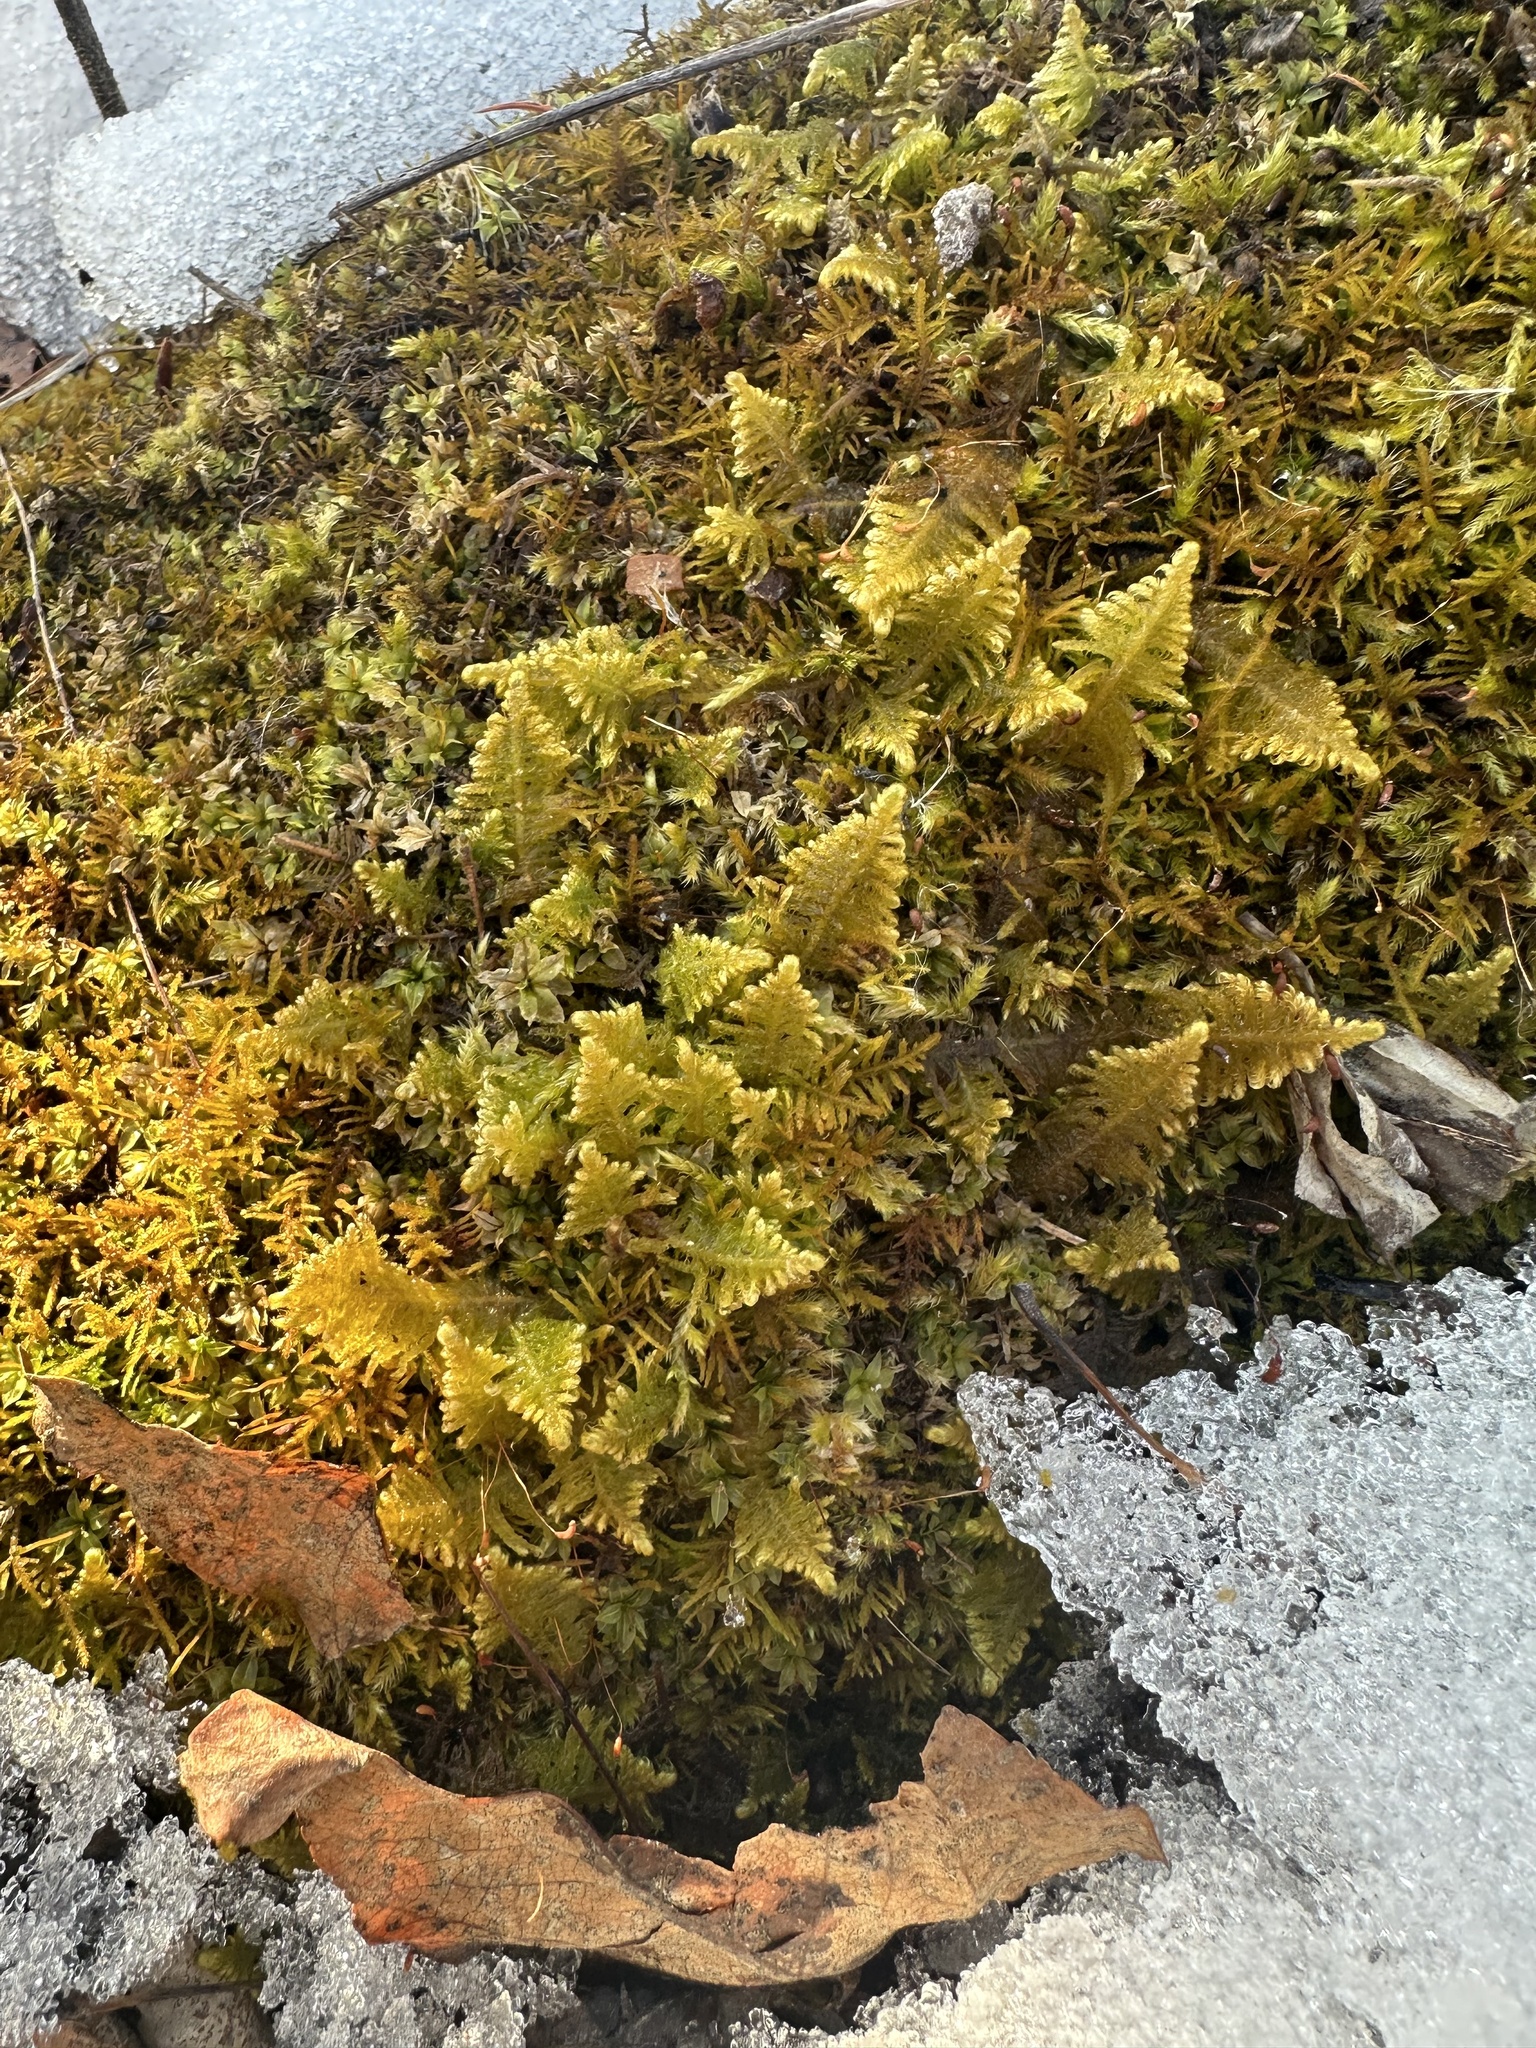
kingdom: Plantae
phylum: Bryophyta
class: Bryopsida
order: Hypnales
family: Pylaisiaceae
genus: Ptilium
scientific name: Ptilium crista-castrensis
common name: Knight's plume moss
